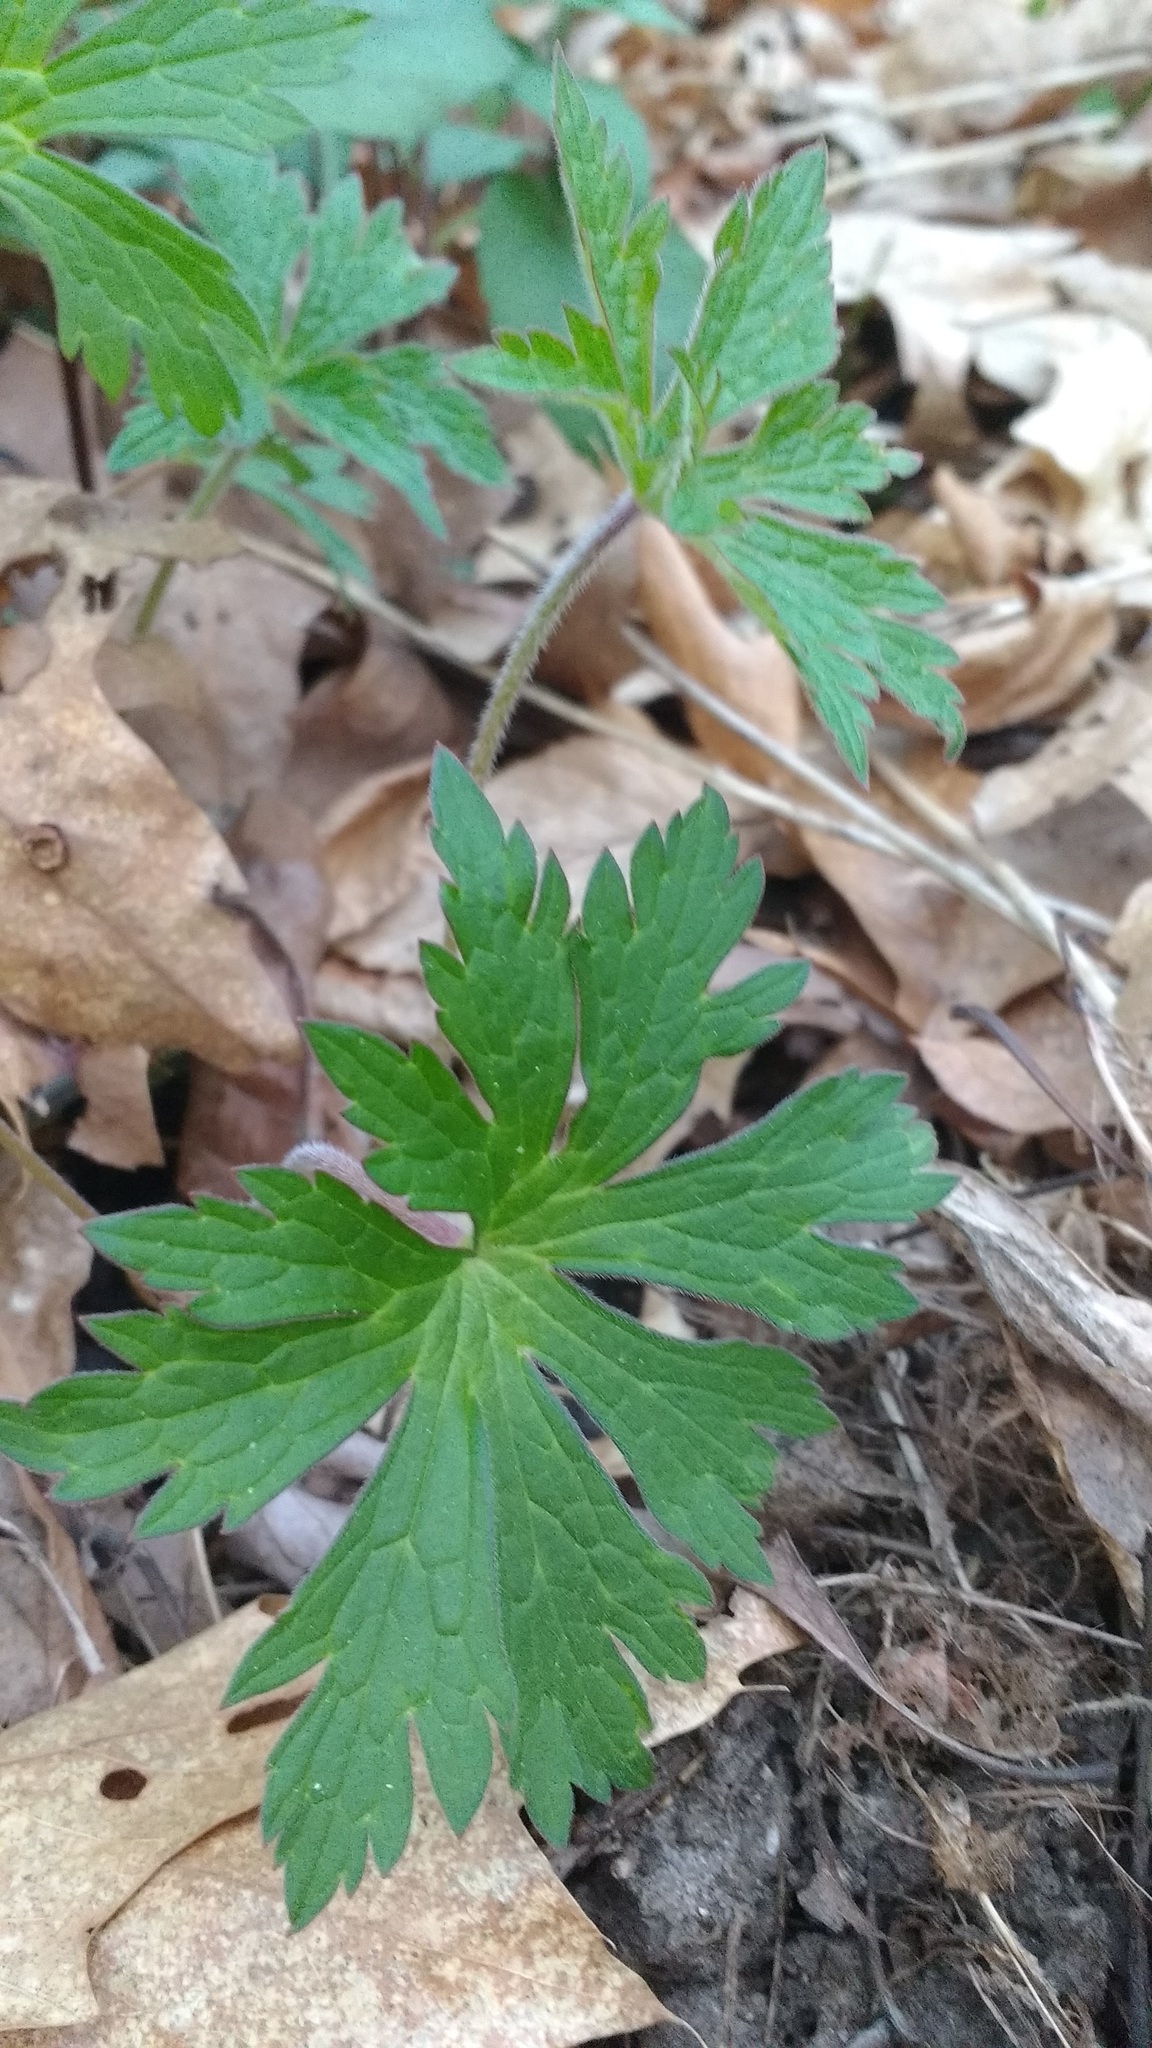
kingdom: Plantae
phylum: Tracheophyta
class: Magnoliopsida
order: Geraniales
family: Geraniaceae
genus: Geranium
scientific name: Geranium maculatum
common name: Spotted geranium
